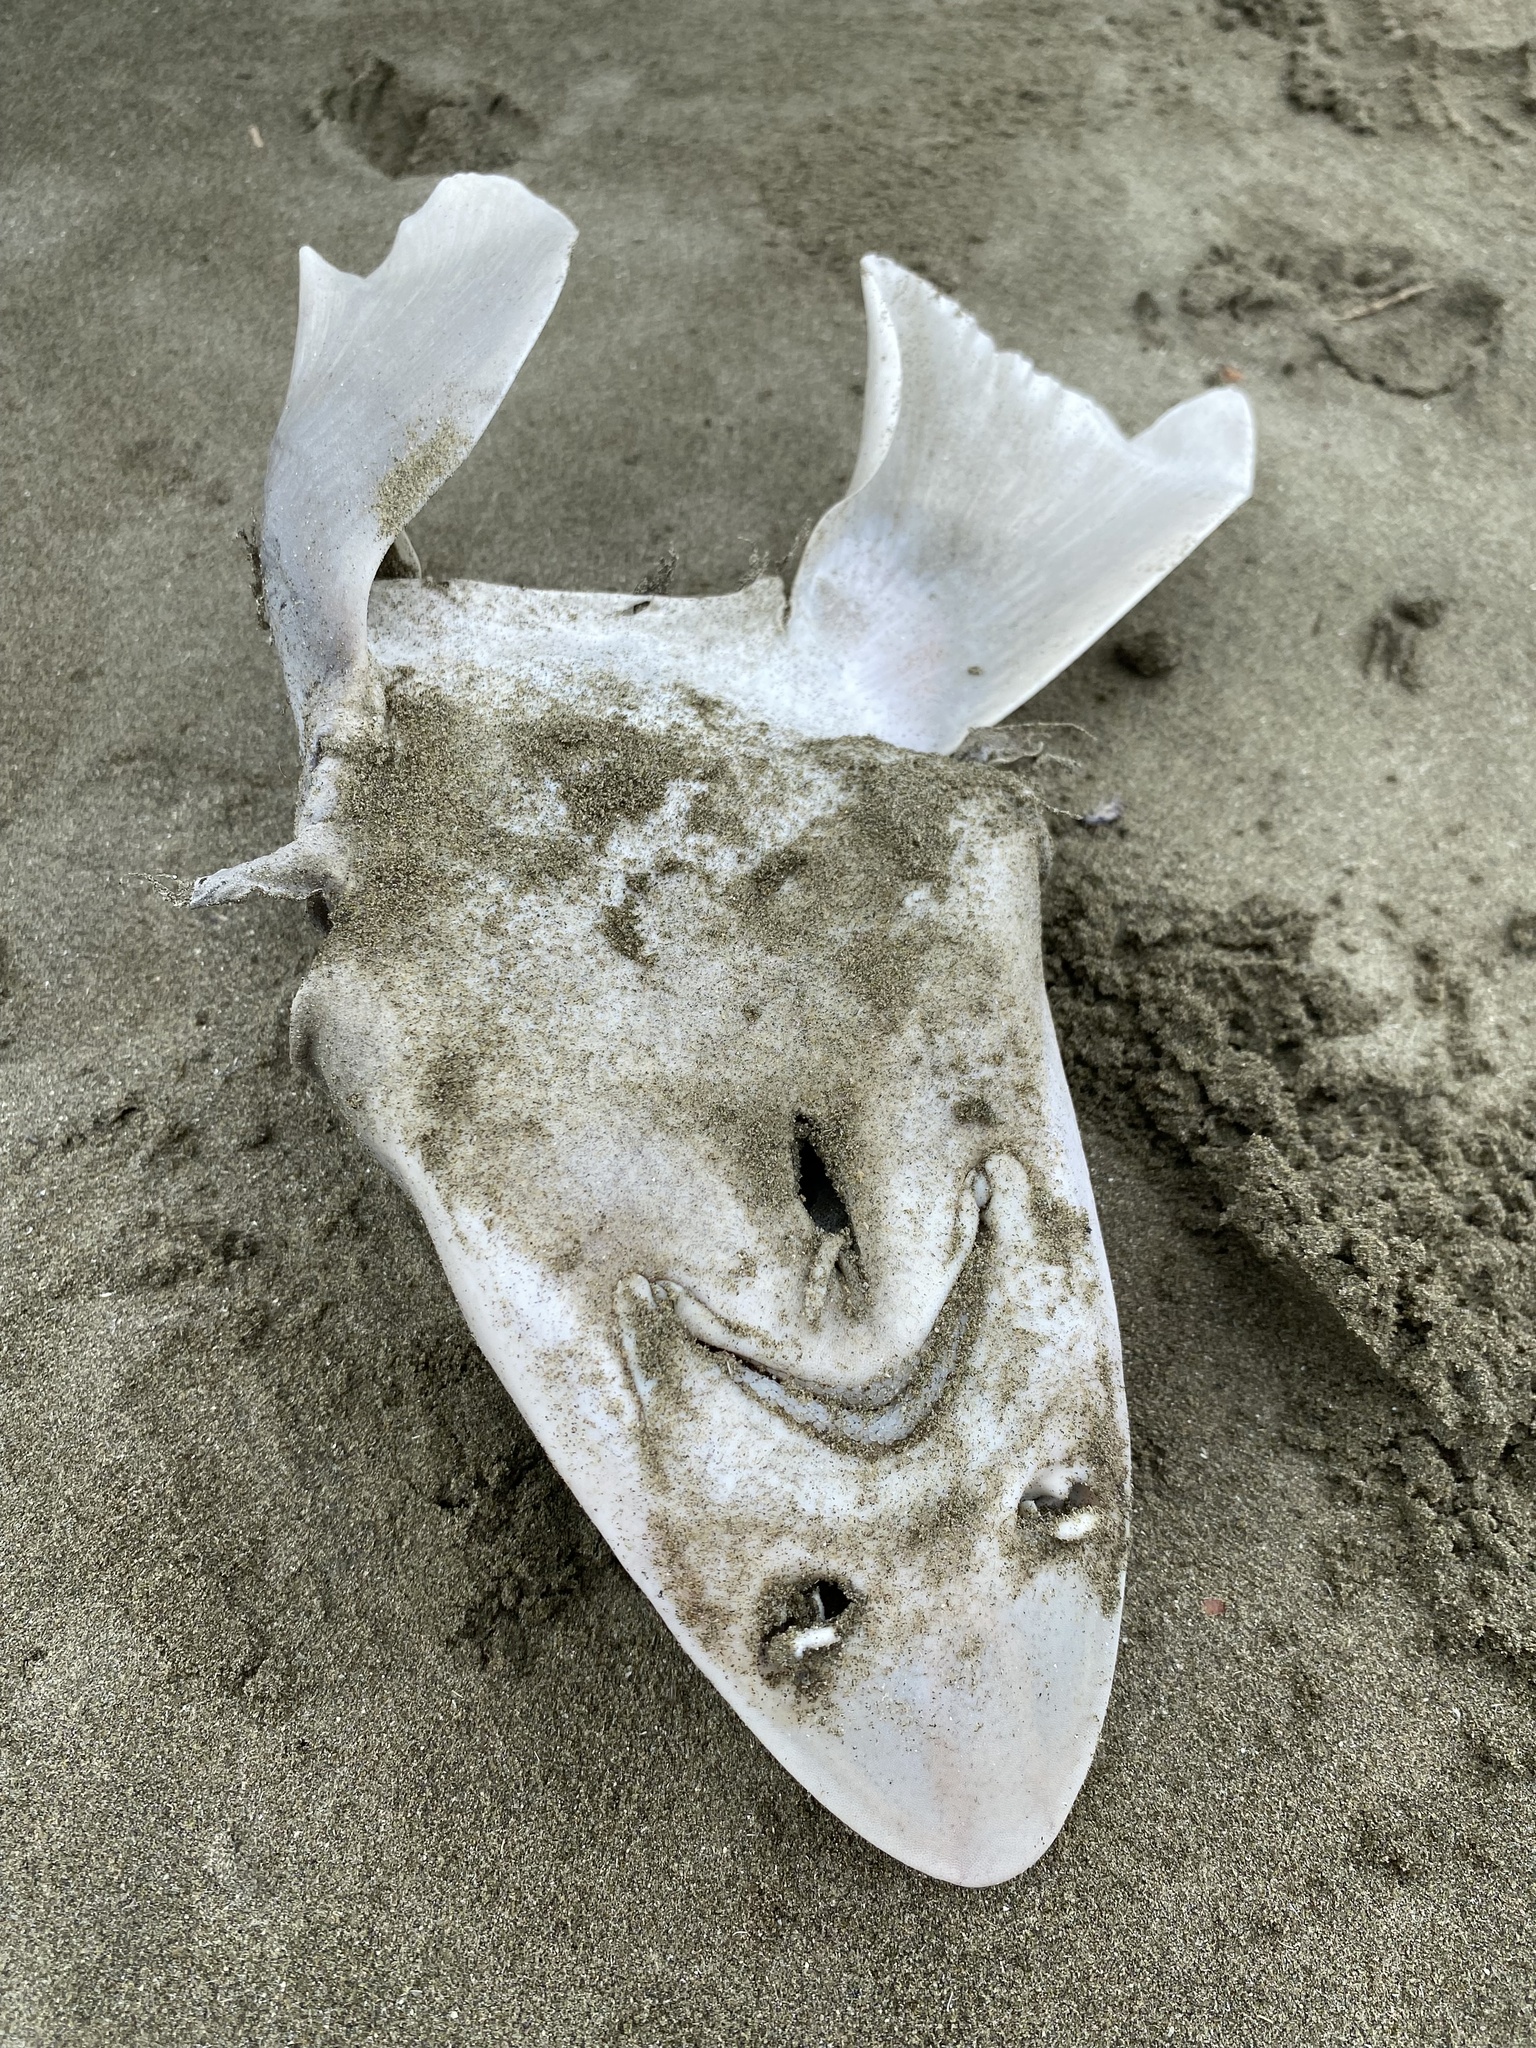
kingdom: Animalia
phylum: Chordata
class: Elasmobranchii
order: Carcharhiniformes
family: Triakidae
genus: Mustelus
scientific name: Mustelus lenticulatus
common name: Gummy shark
